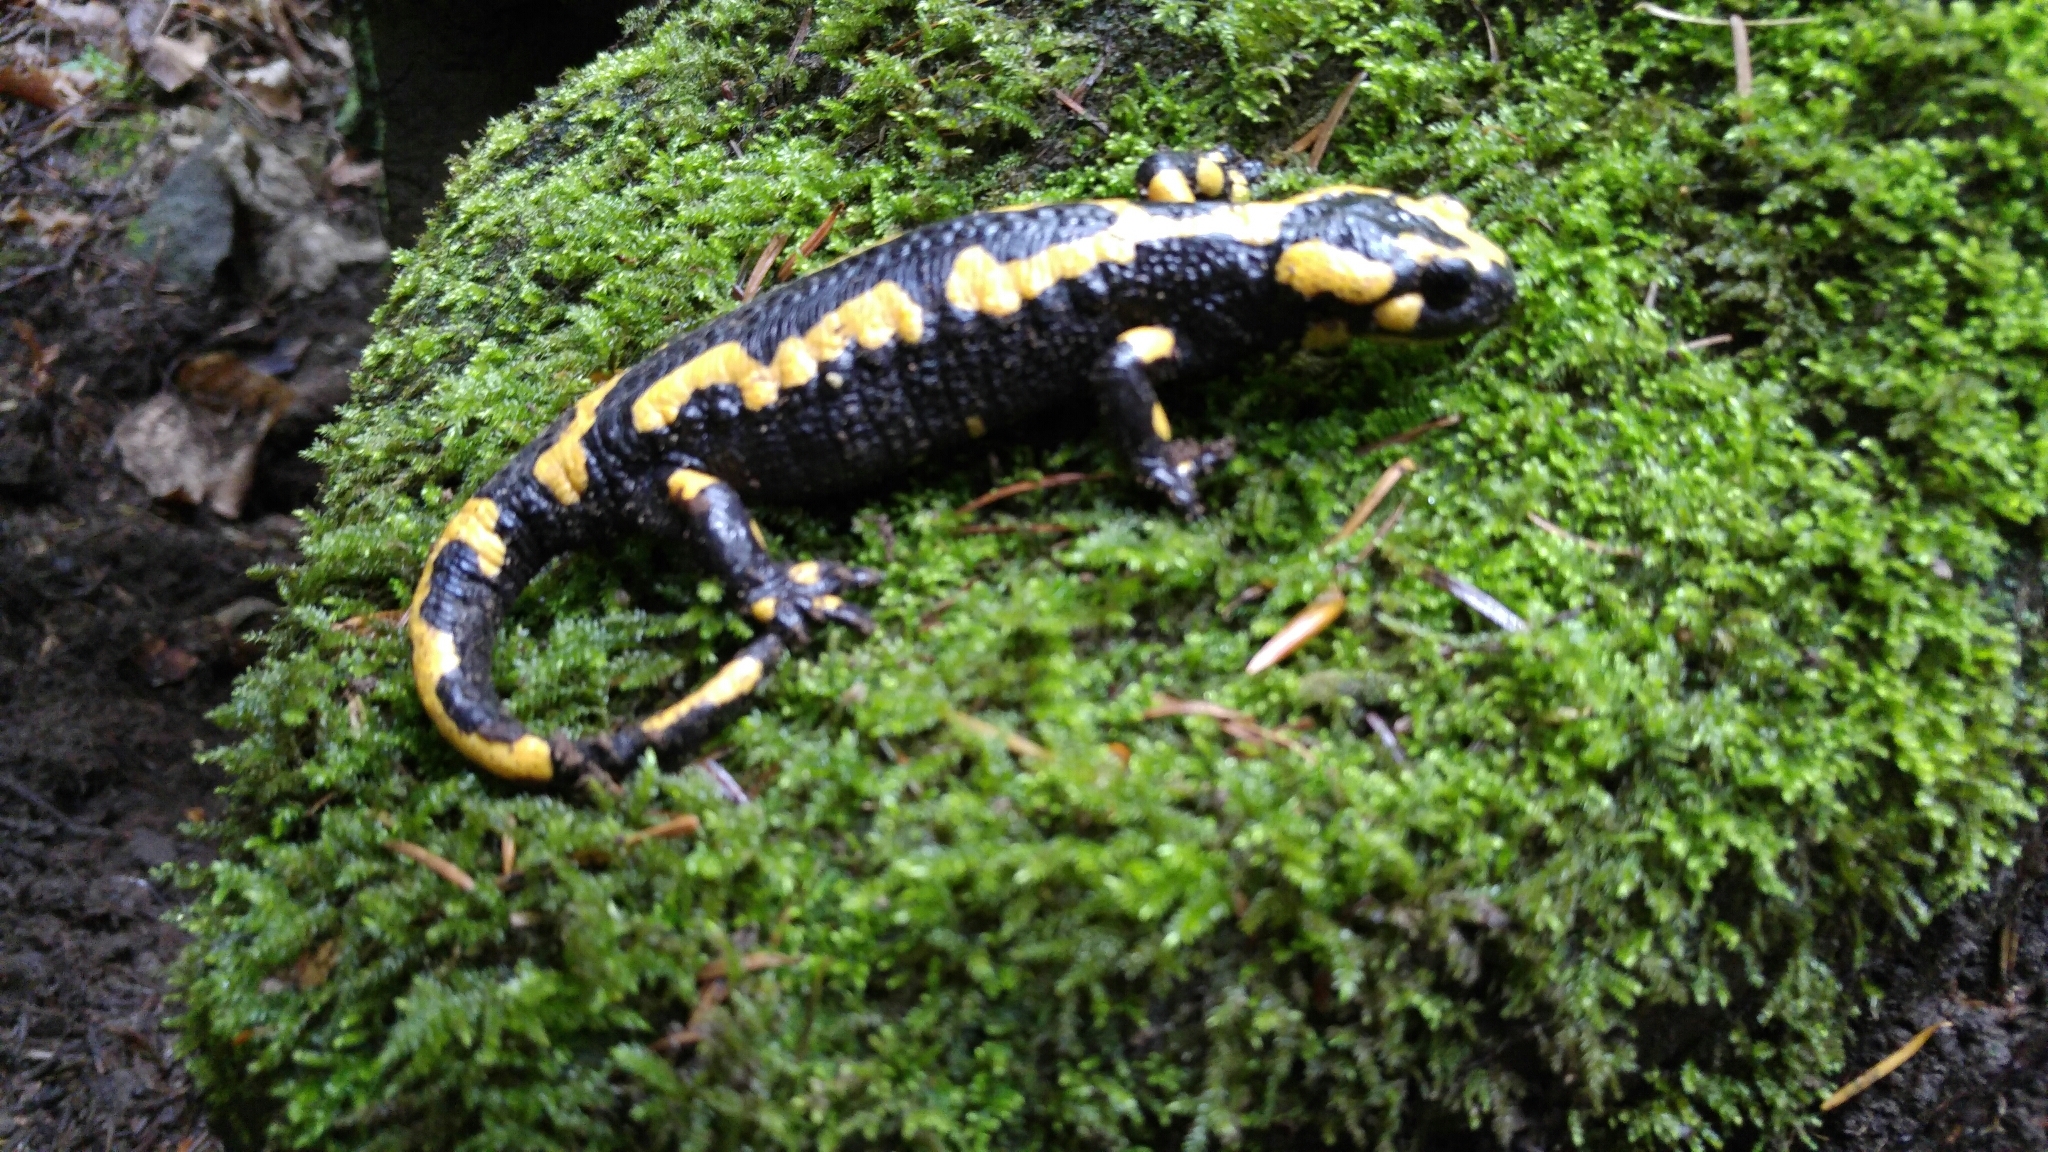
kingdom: Animalia
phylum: Chordata
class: Amphibia
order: Caudata
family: Salamandridae
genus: Salamandra
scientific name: Salamandra salamandra
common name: Fire salamander
